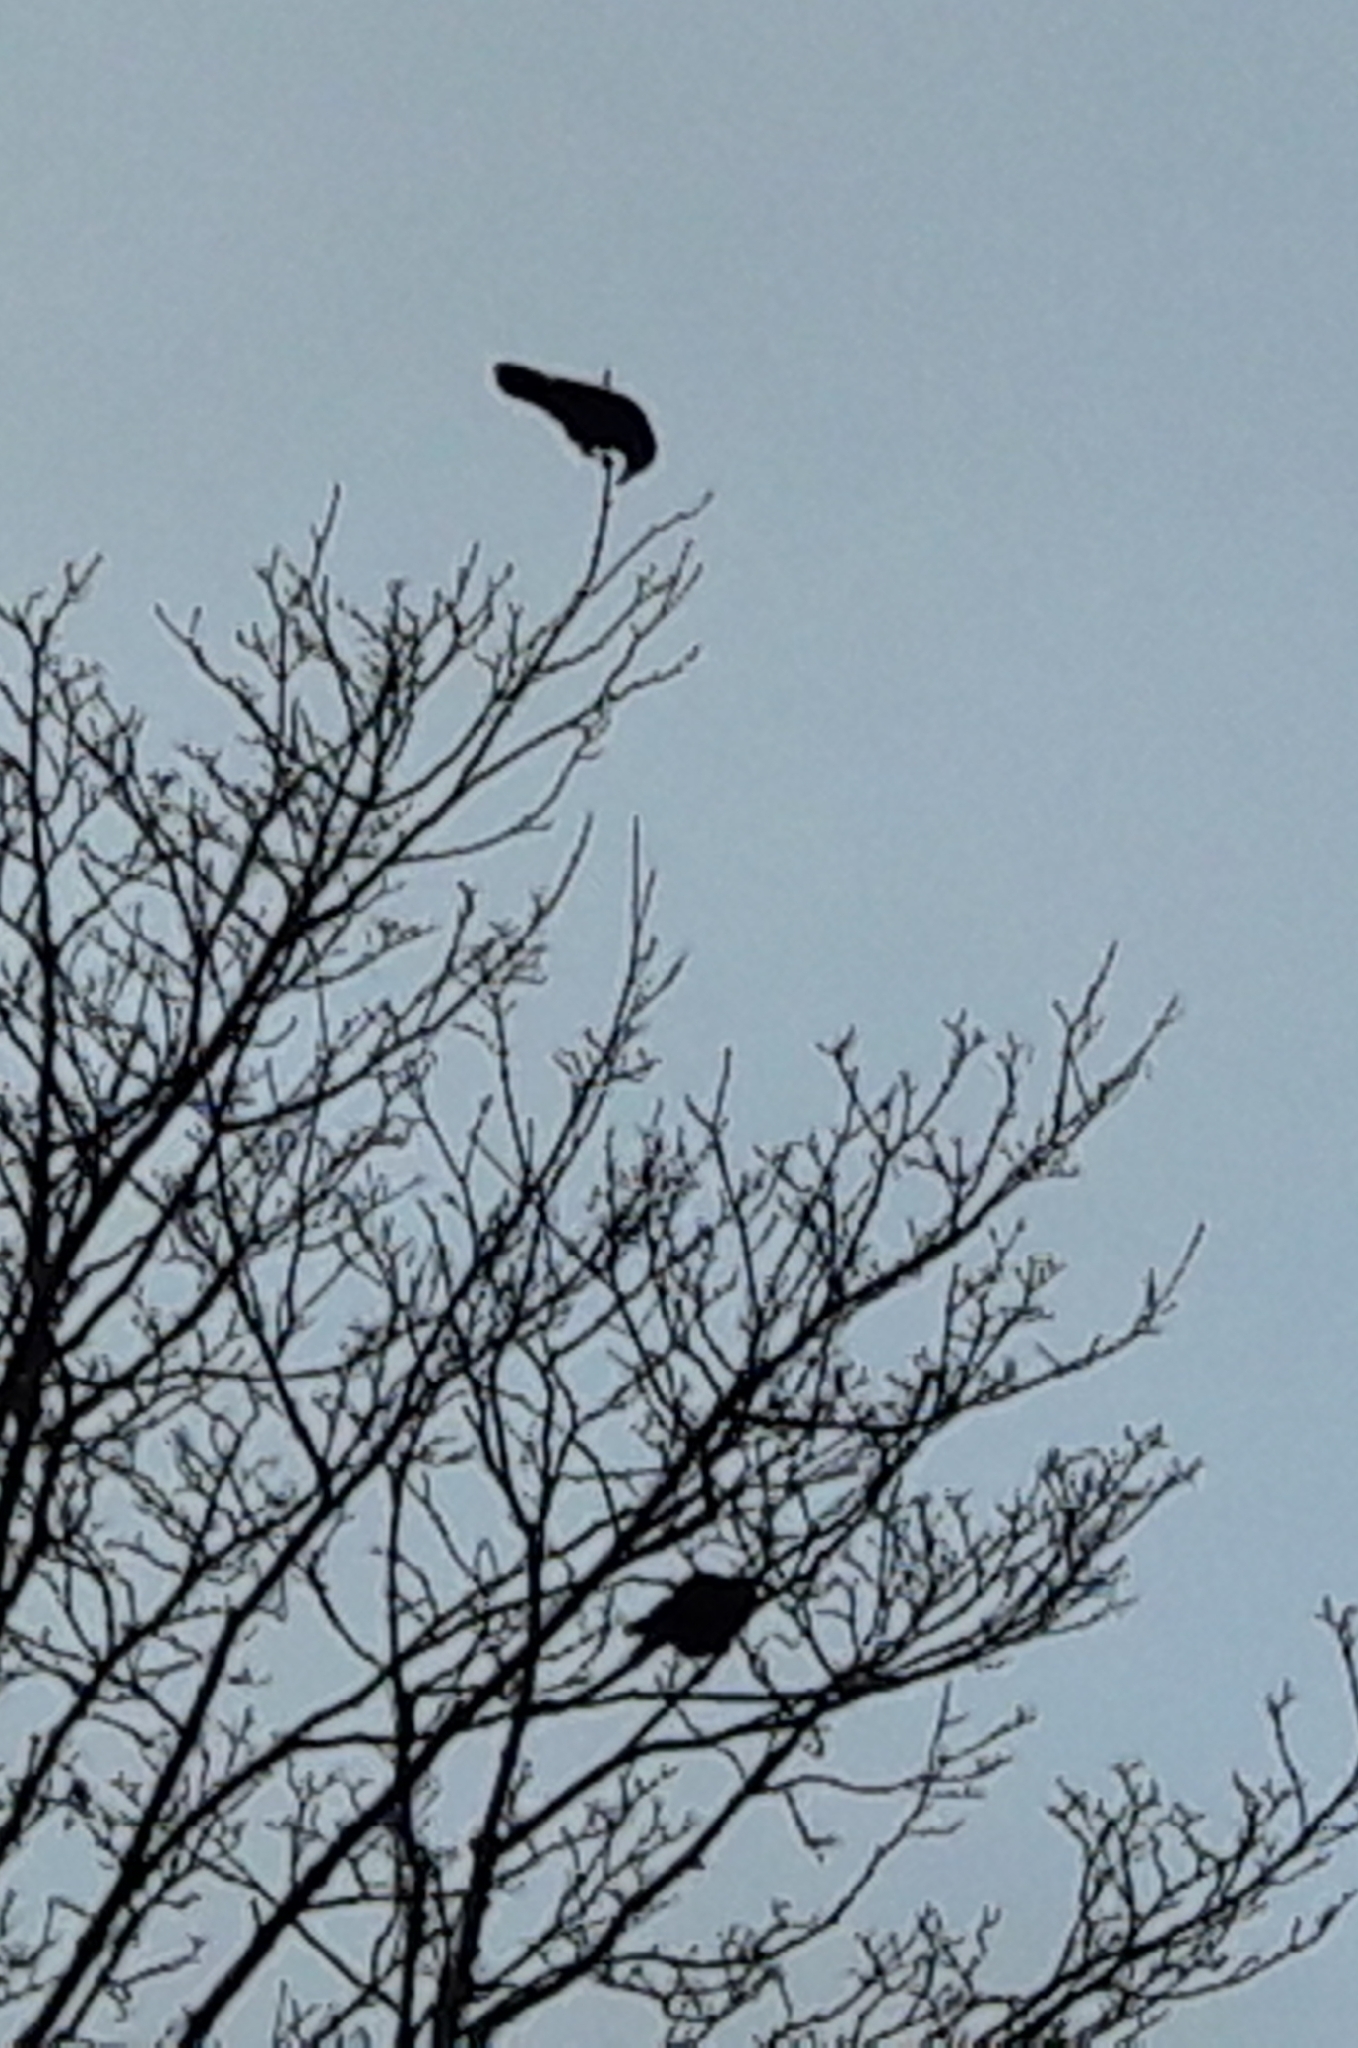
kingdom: Animalia
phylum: Chordata
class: Aves
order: Passeriformes
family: Corvidae
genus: Corvus
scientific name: Corvus corone
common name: Carrion crow
